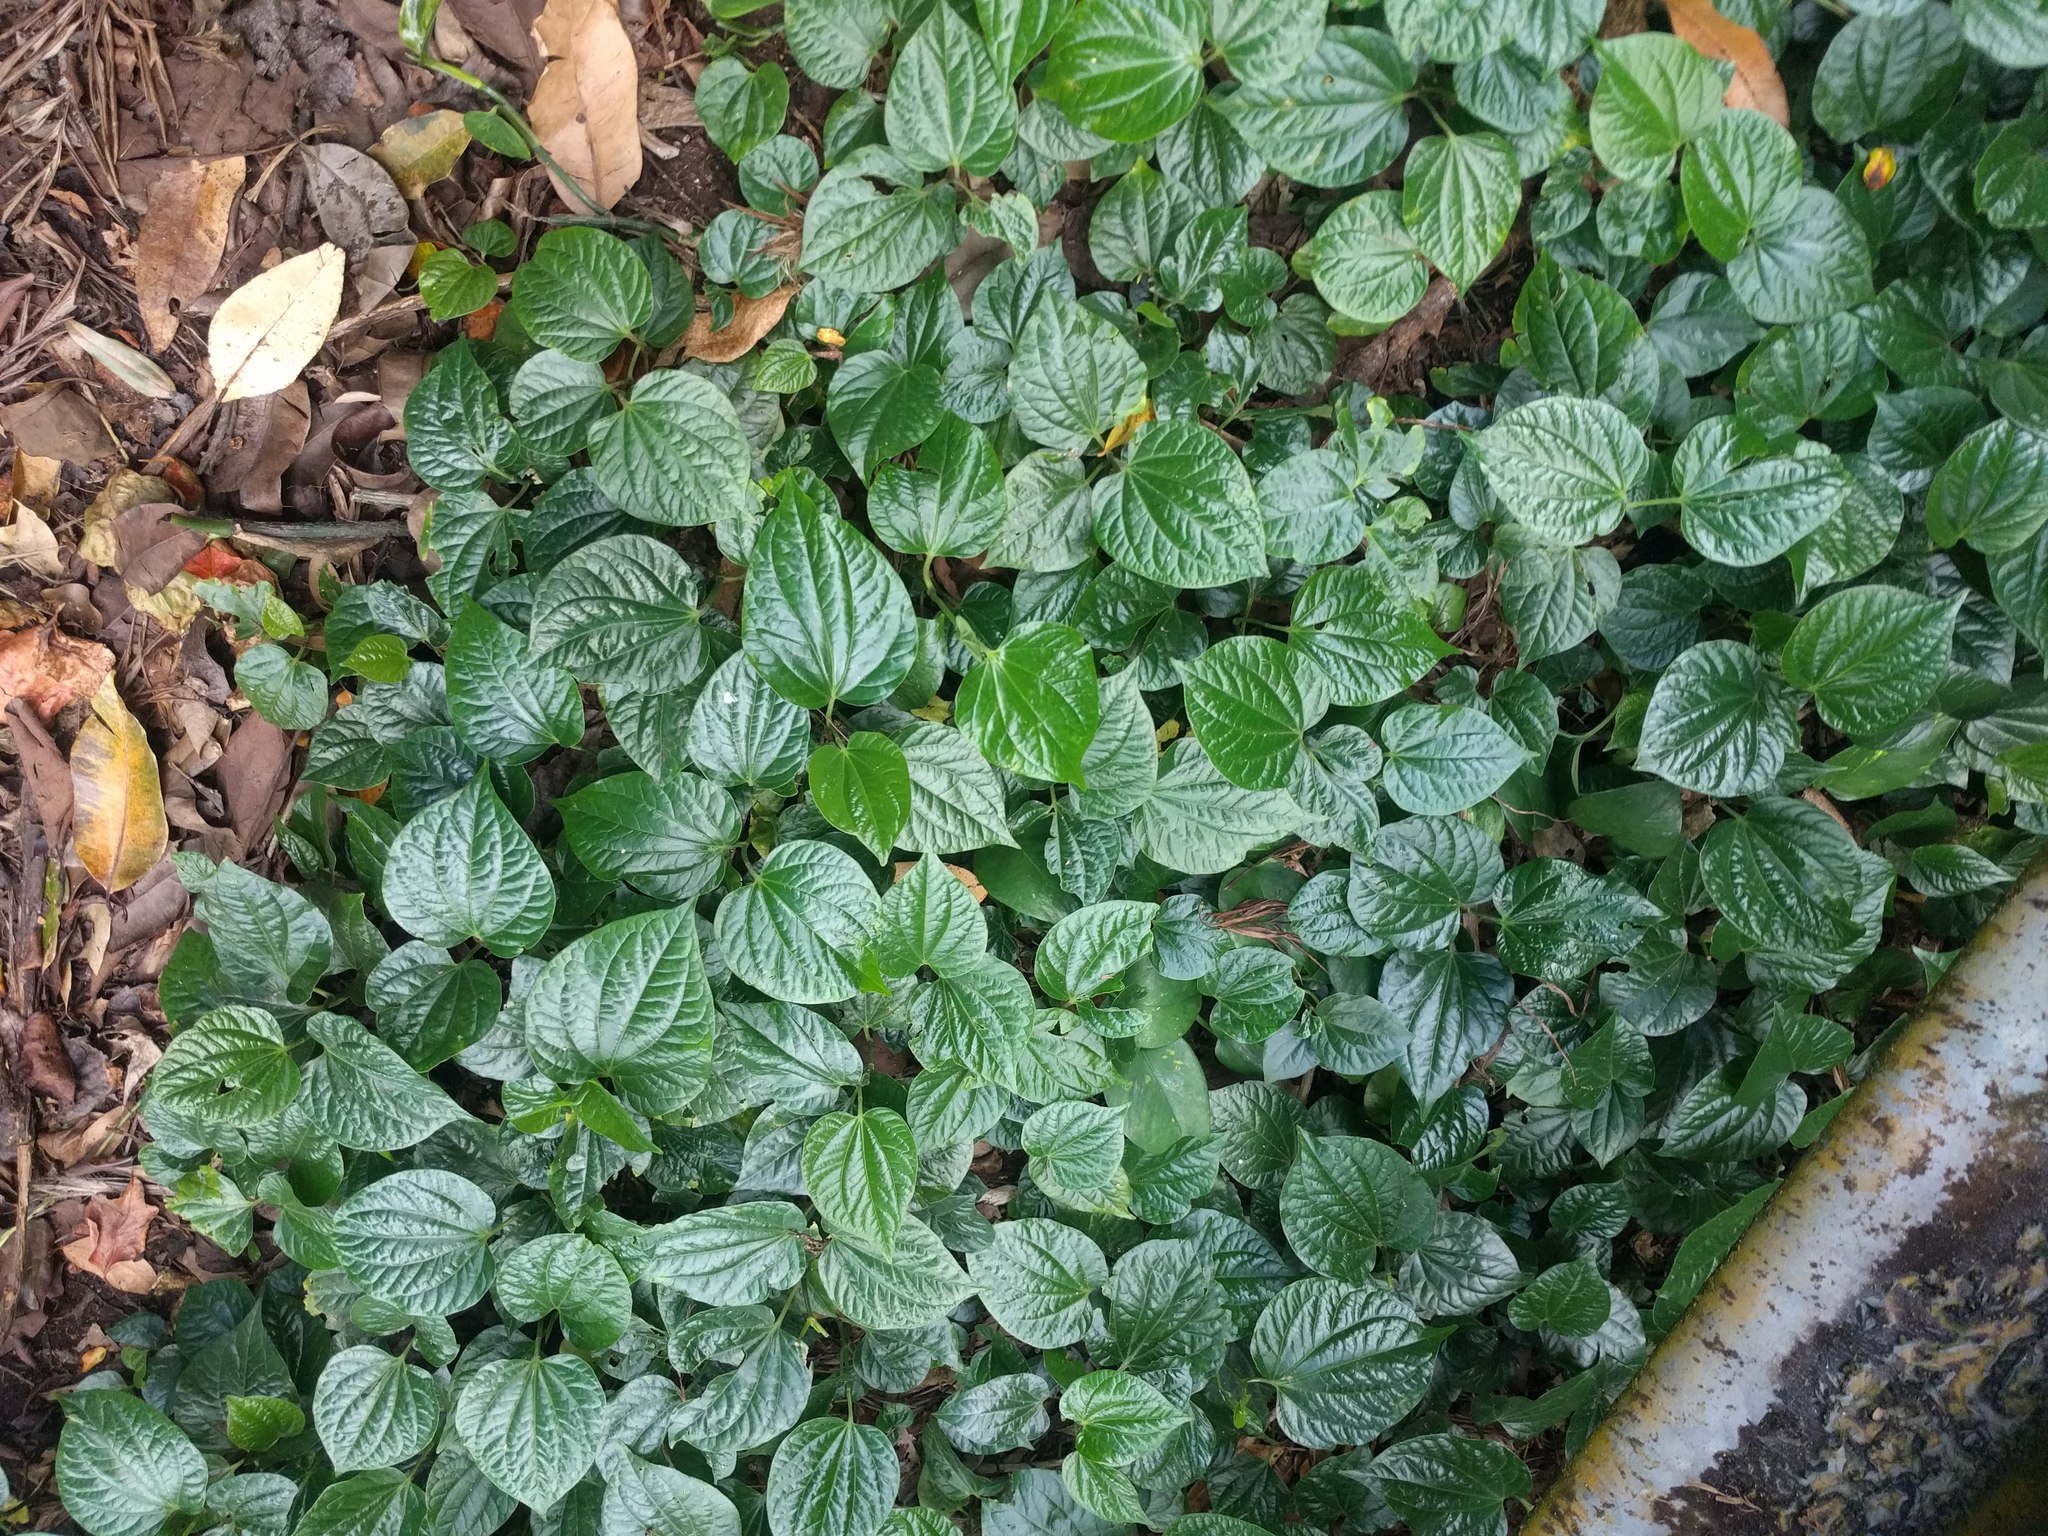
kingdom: Plantae
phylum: Tracheophyta
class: Magnoliopsida
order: Piperales
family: Piperaceae
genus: Piper
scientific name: Piper sarmentosum
